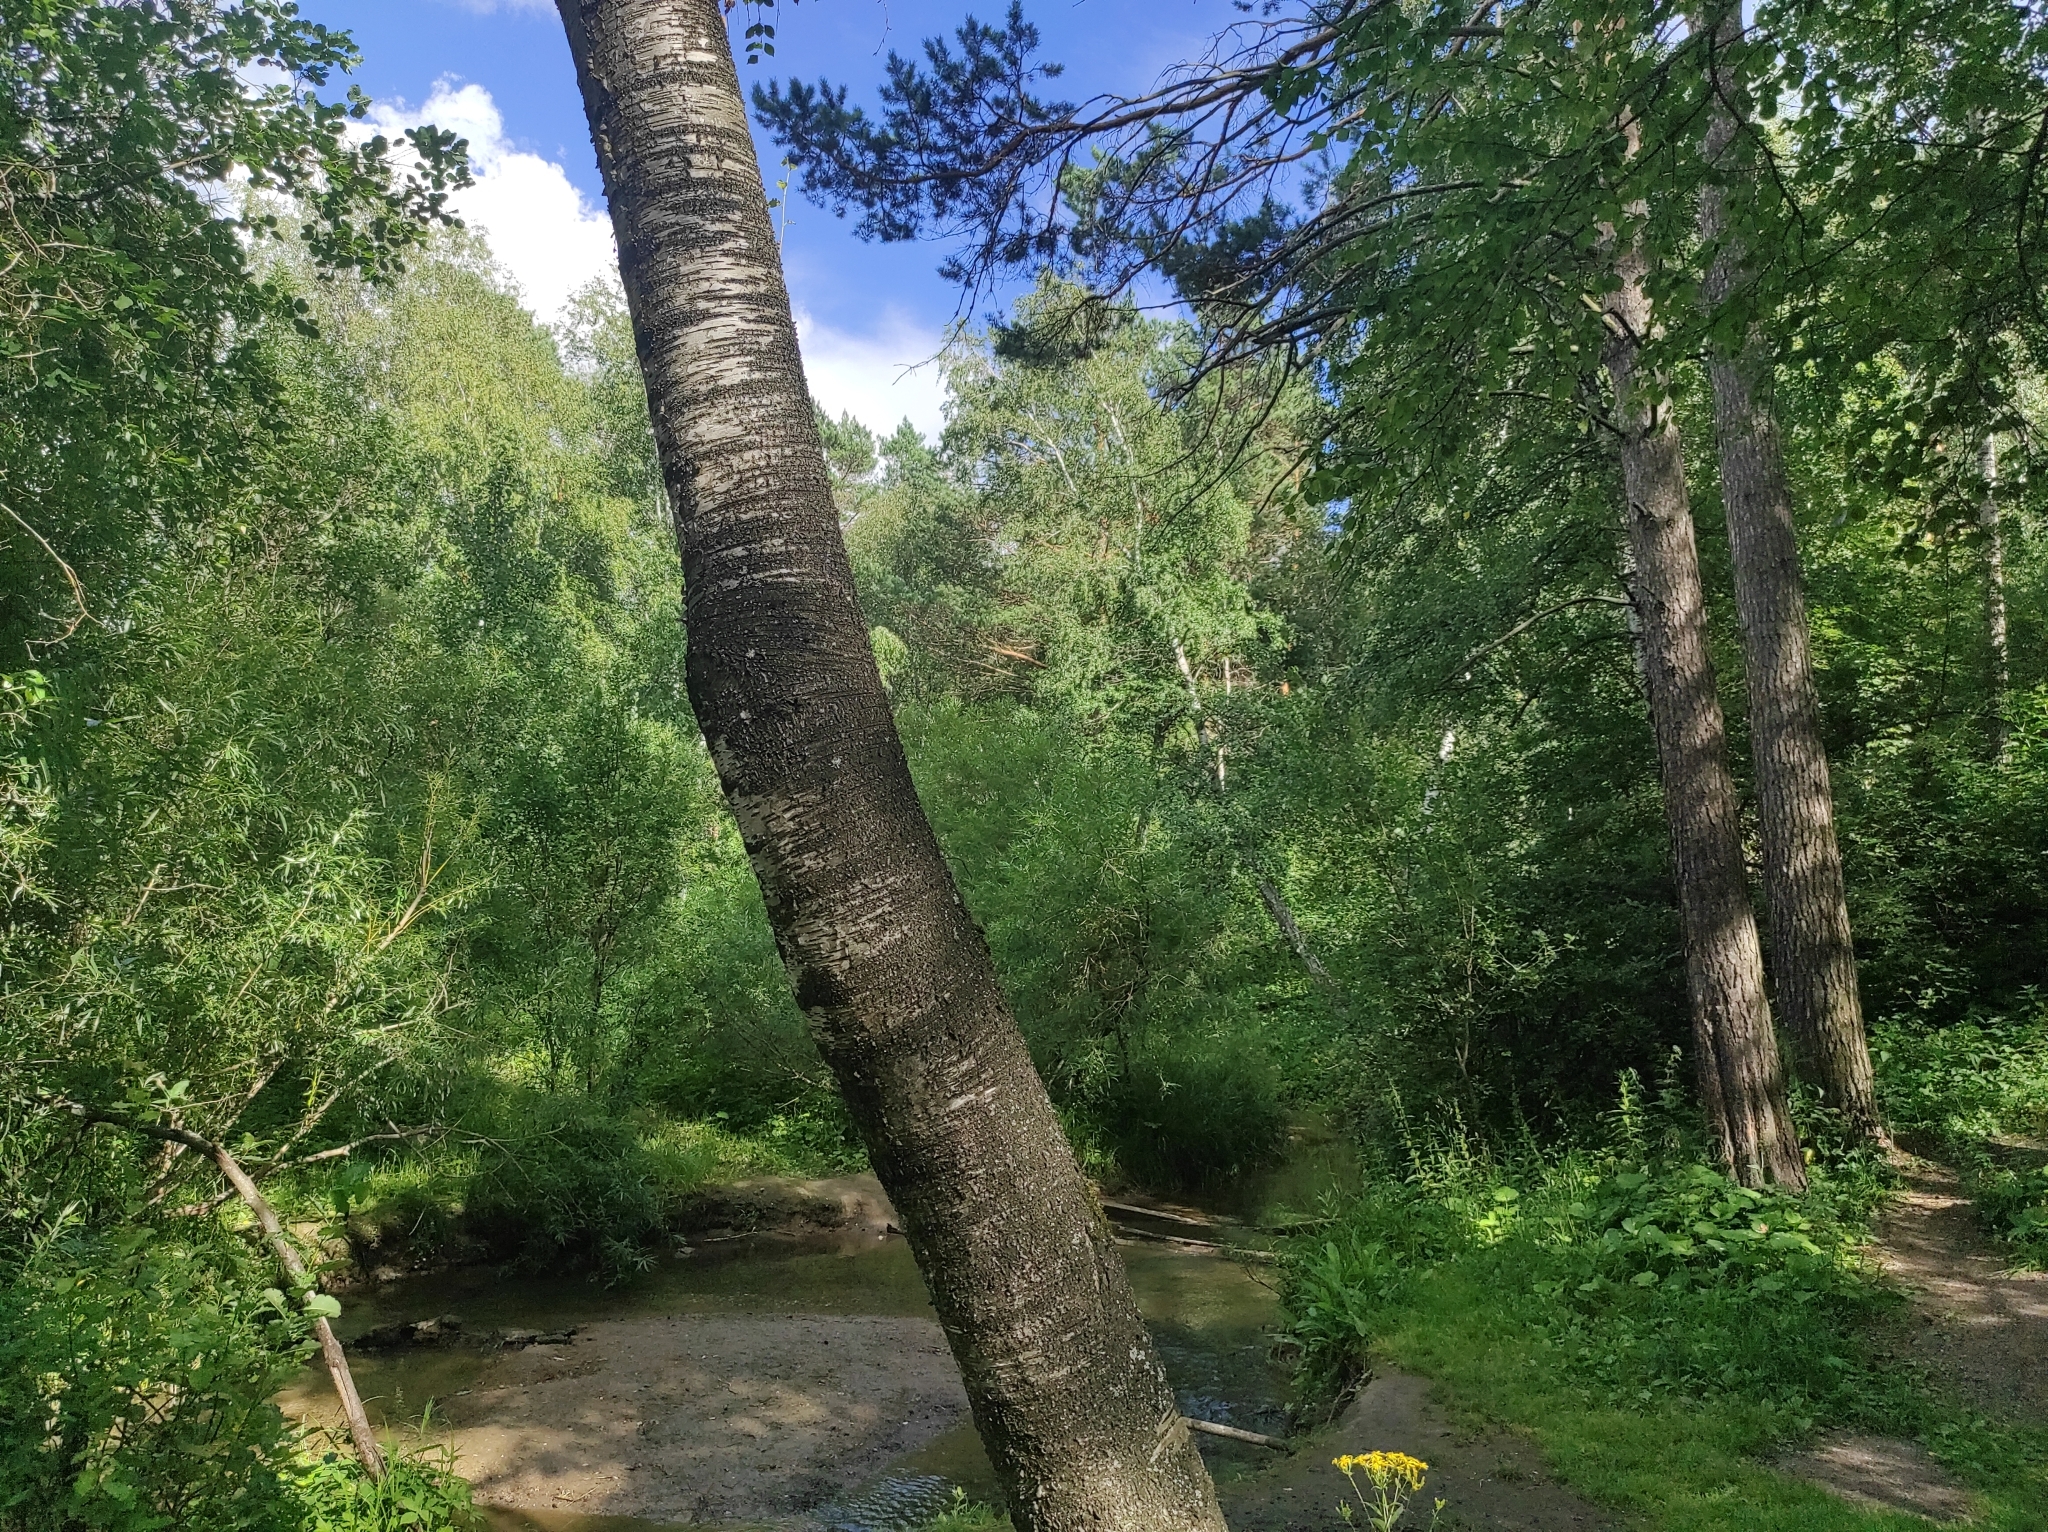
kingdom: Plantae
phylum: Tracheophyta
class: Pinopsida
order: Pinales
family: Pinaceae
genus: Pinus
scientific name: Pinus sylvestris
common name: Scots pine
